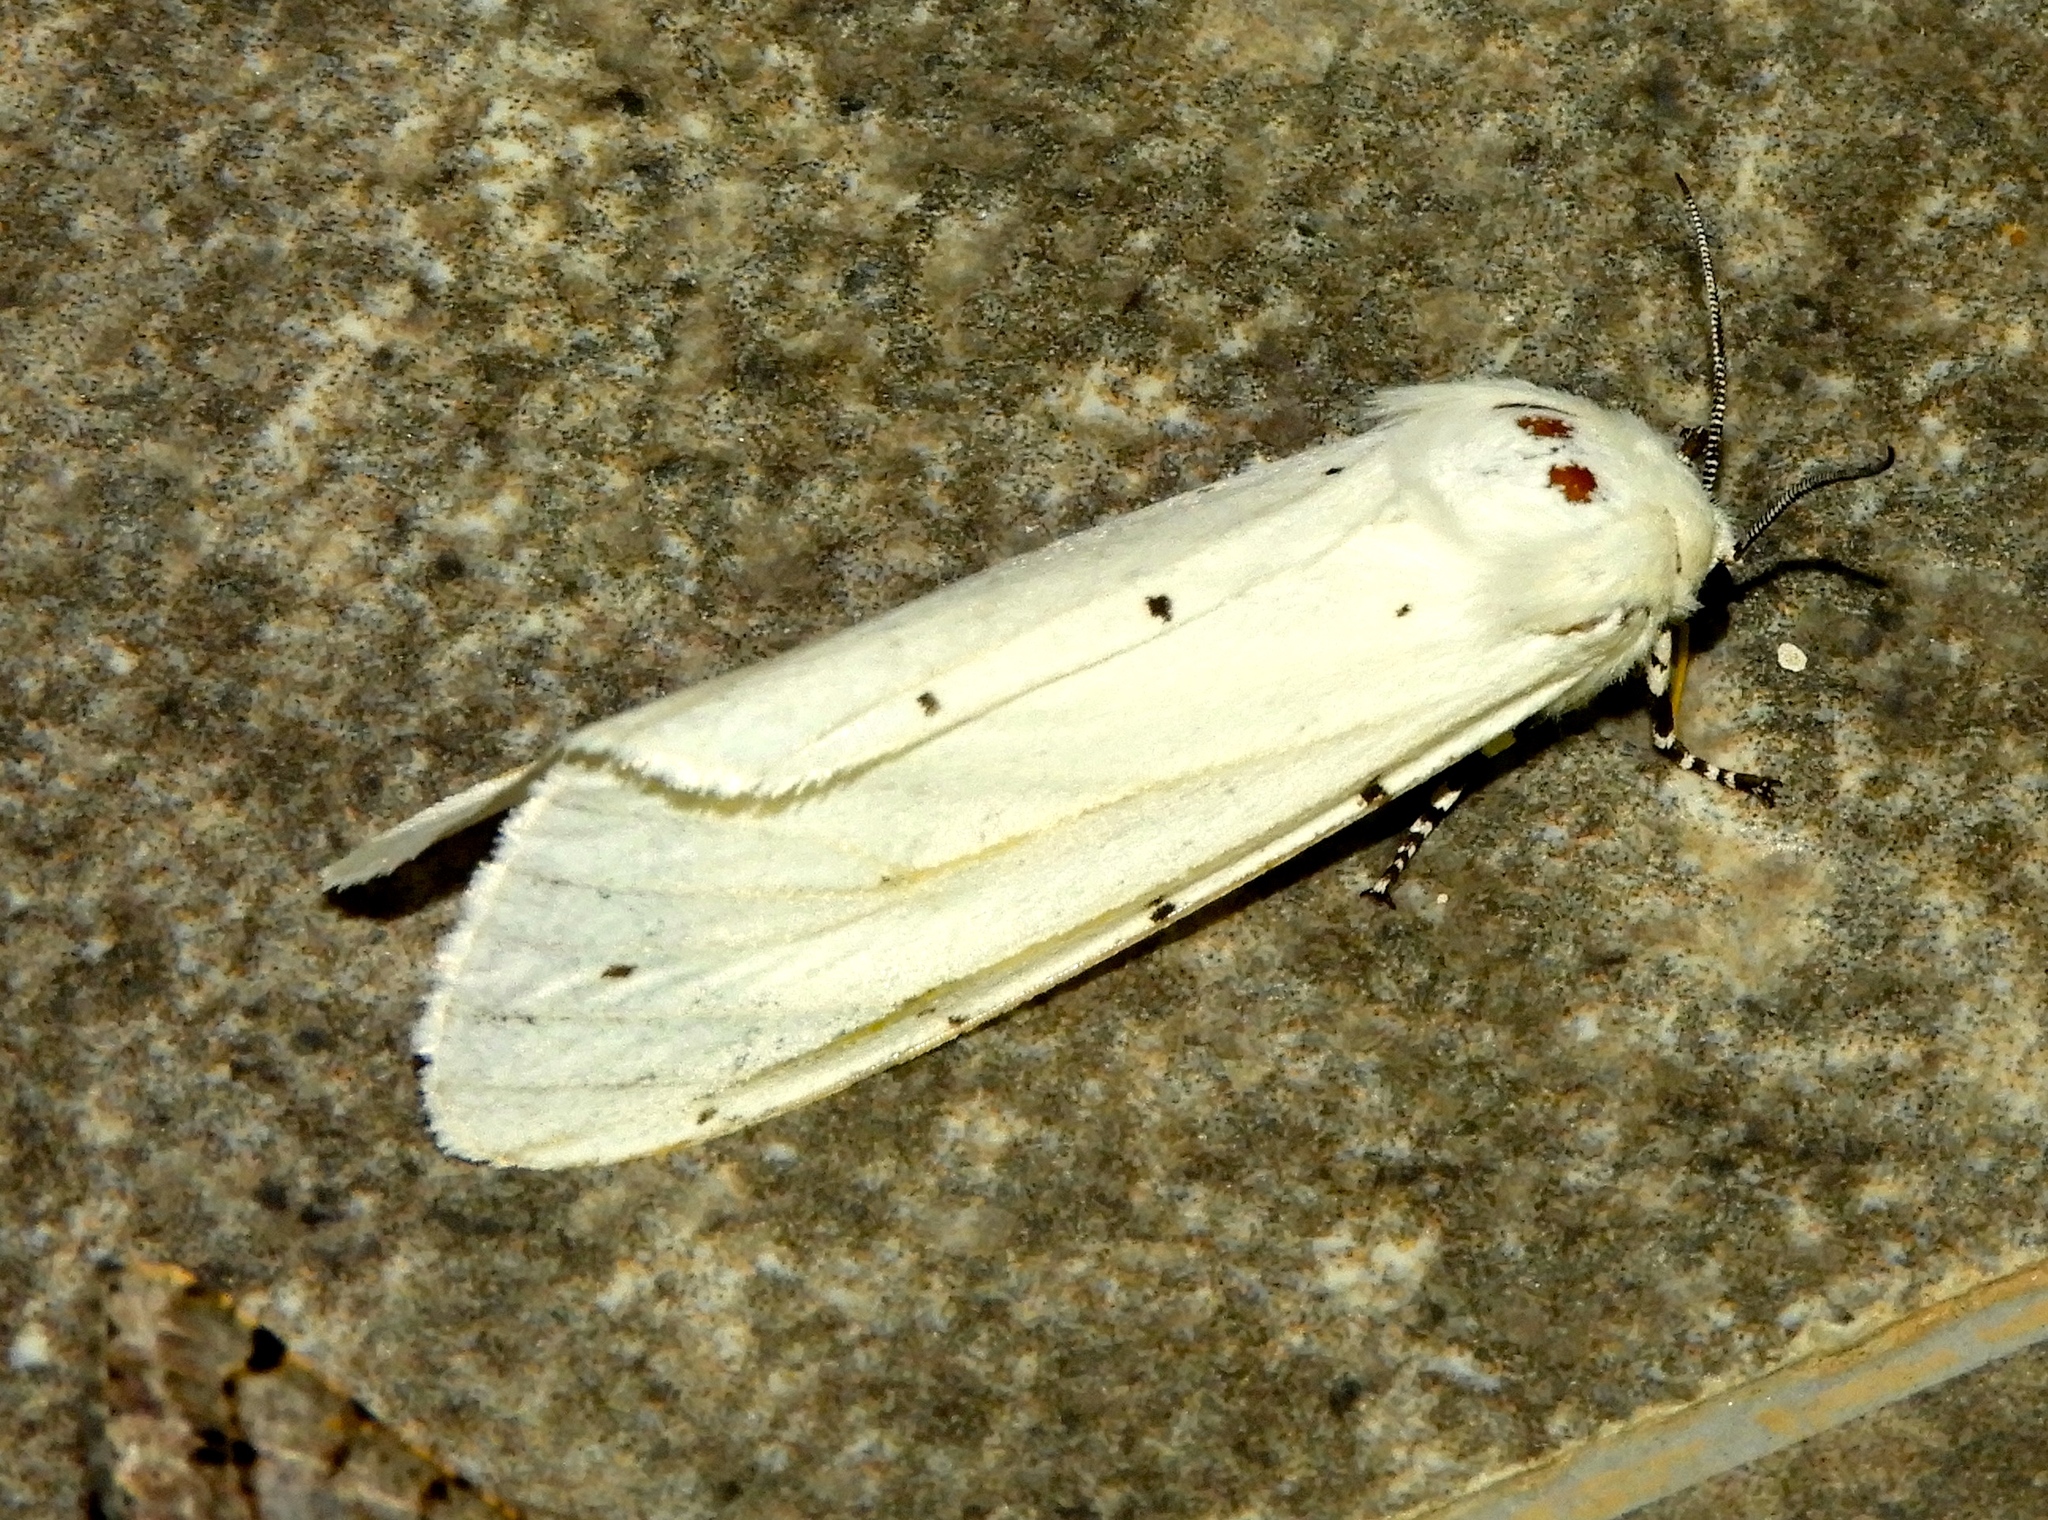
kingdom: Animalia
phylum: Arthropoda
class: Insecta
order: Lepidoptera
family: Erebidae
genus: Estigmene
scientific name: Estigmene acrea
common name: Salt marsh moth
